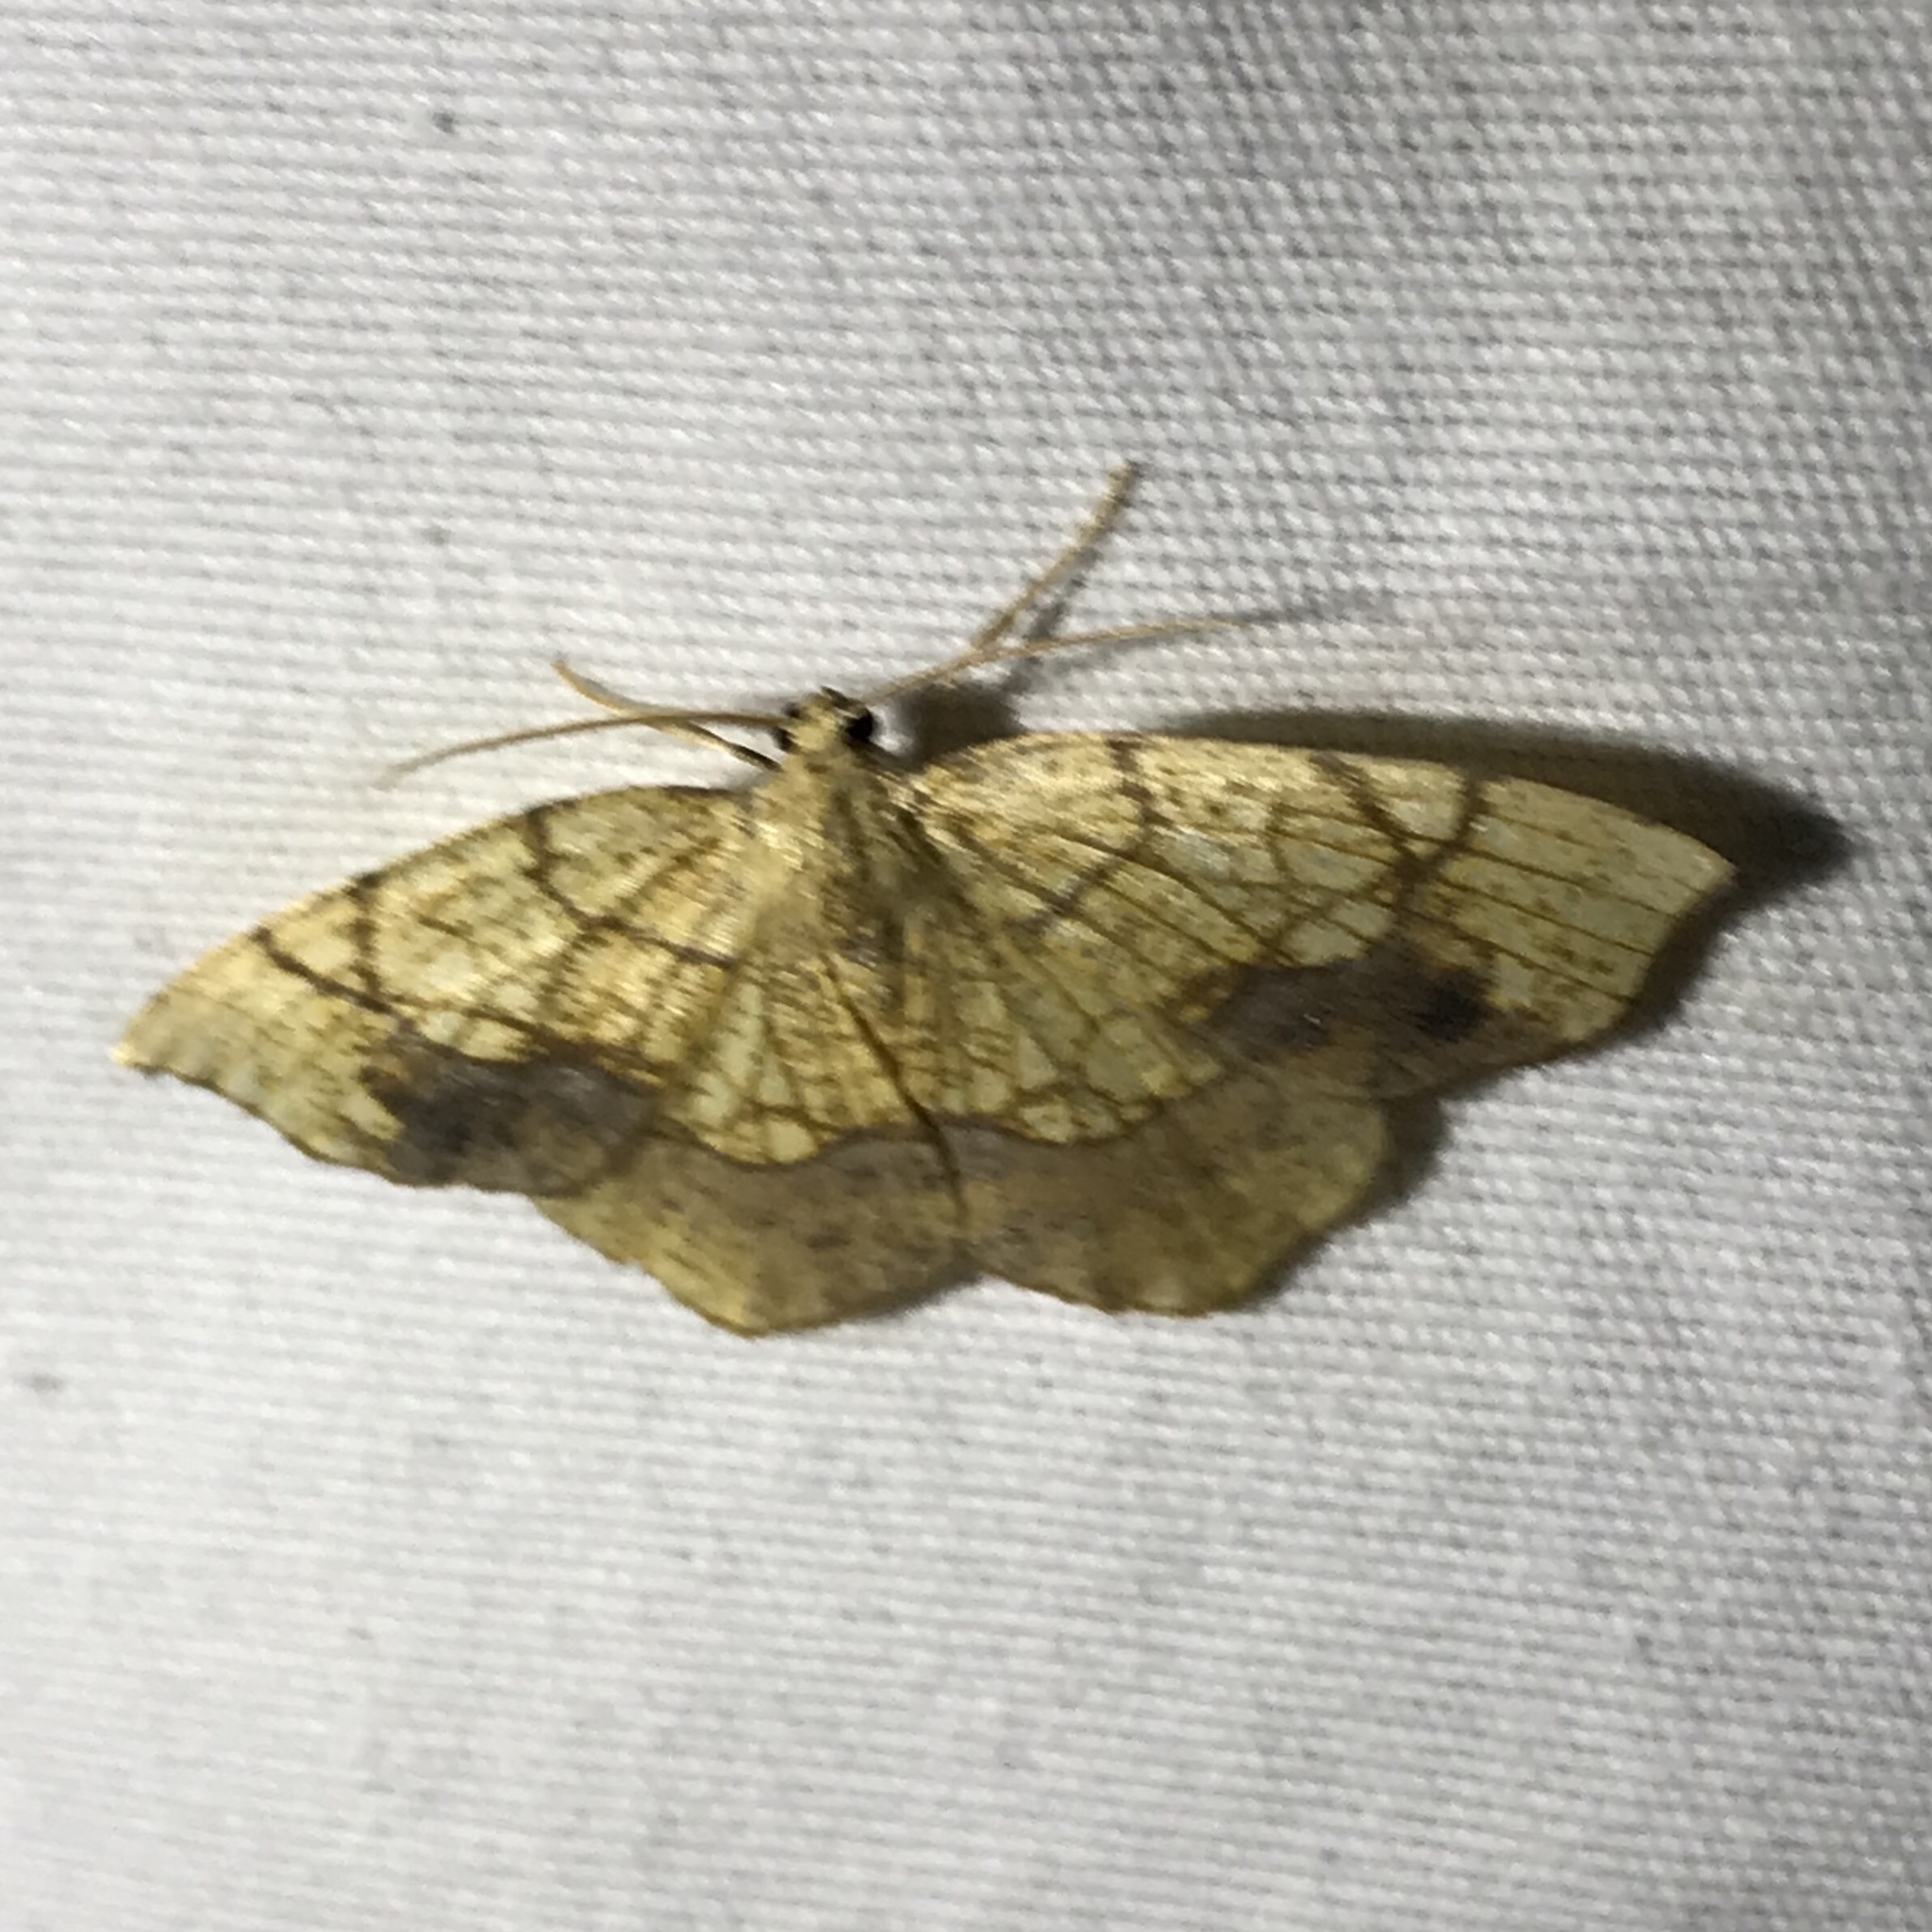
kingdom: Animalia
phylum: Arthropoda
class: Insecta
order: Lepidoptera
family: Geometridae
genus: Nematocampa
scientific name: Nematocampa resistaria
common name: Horned spanworm moth
